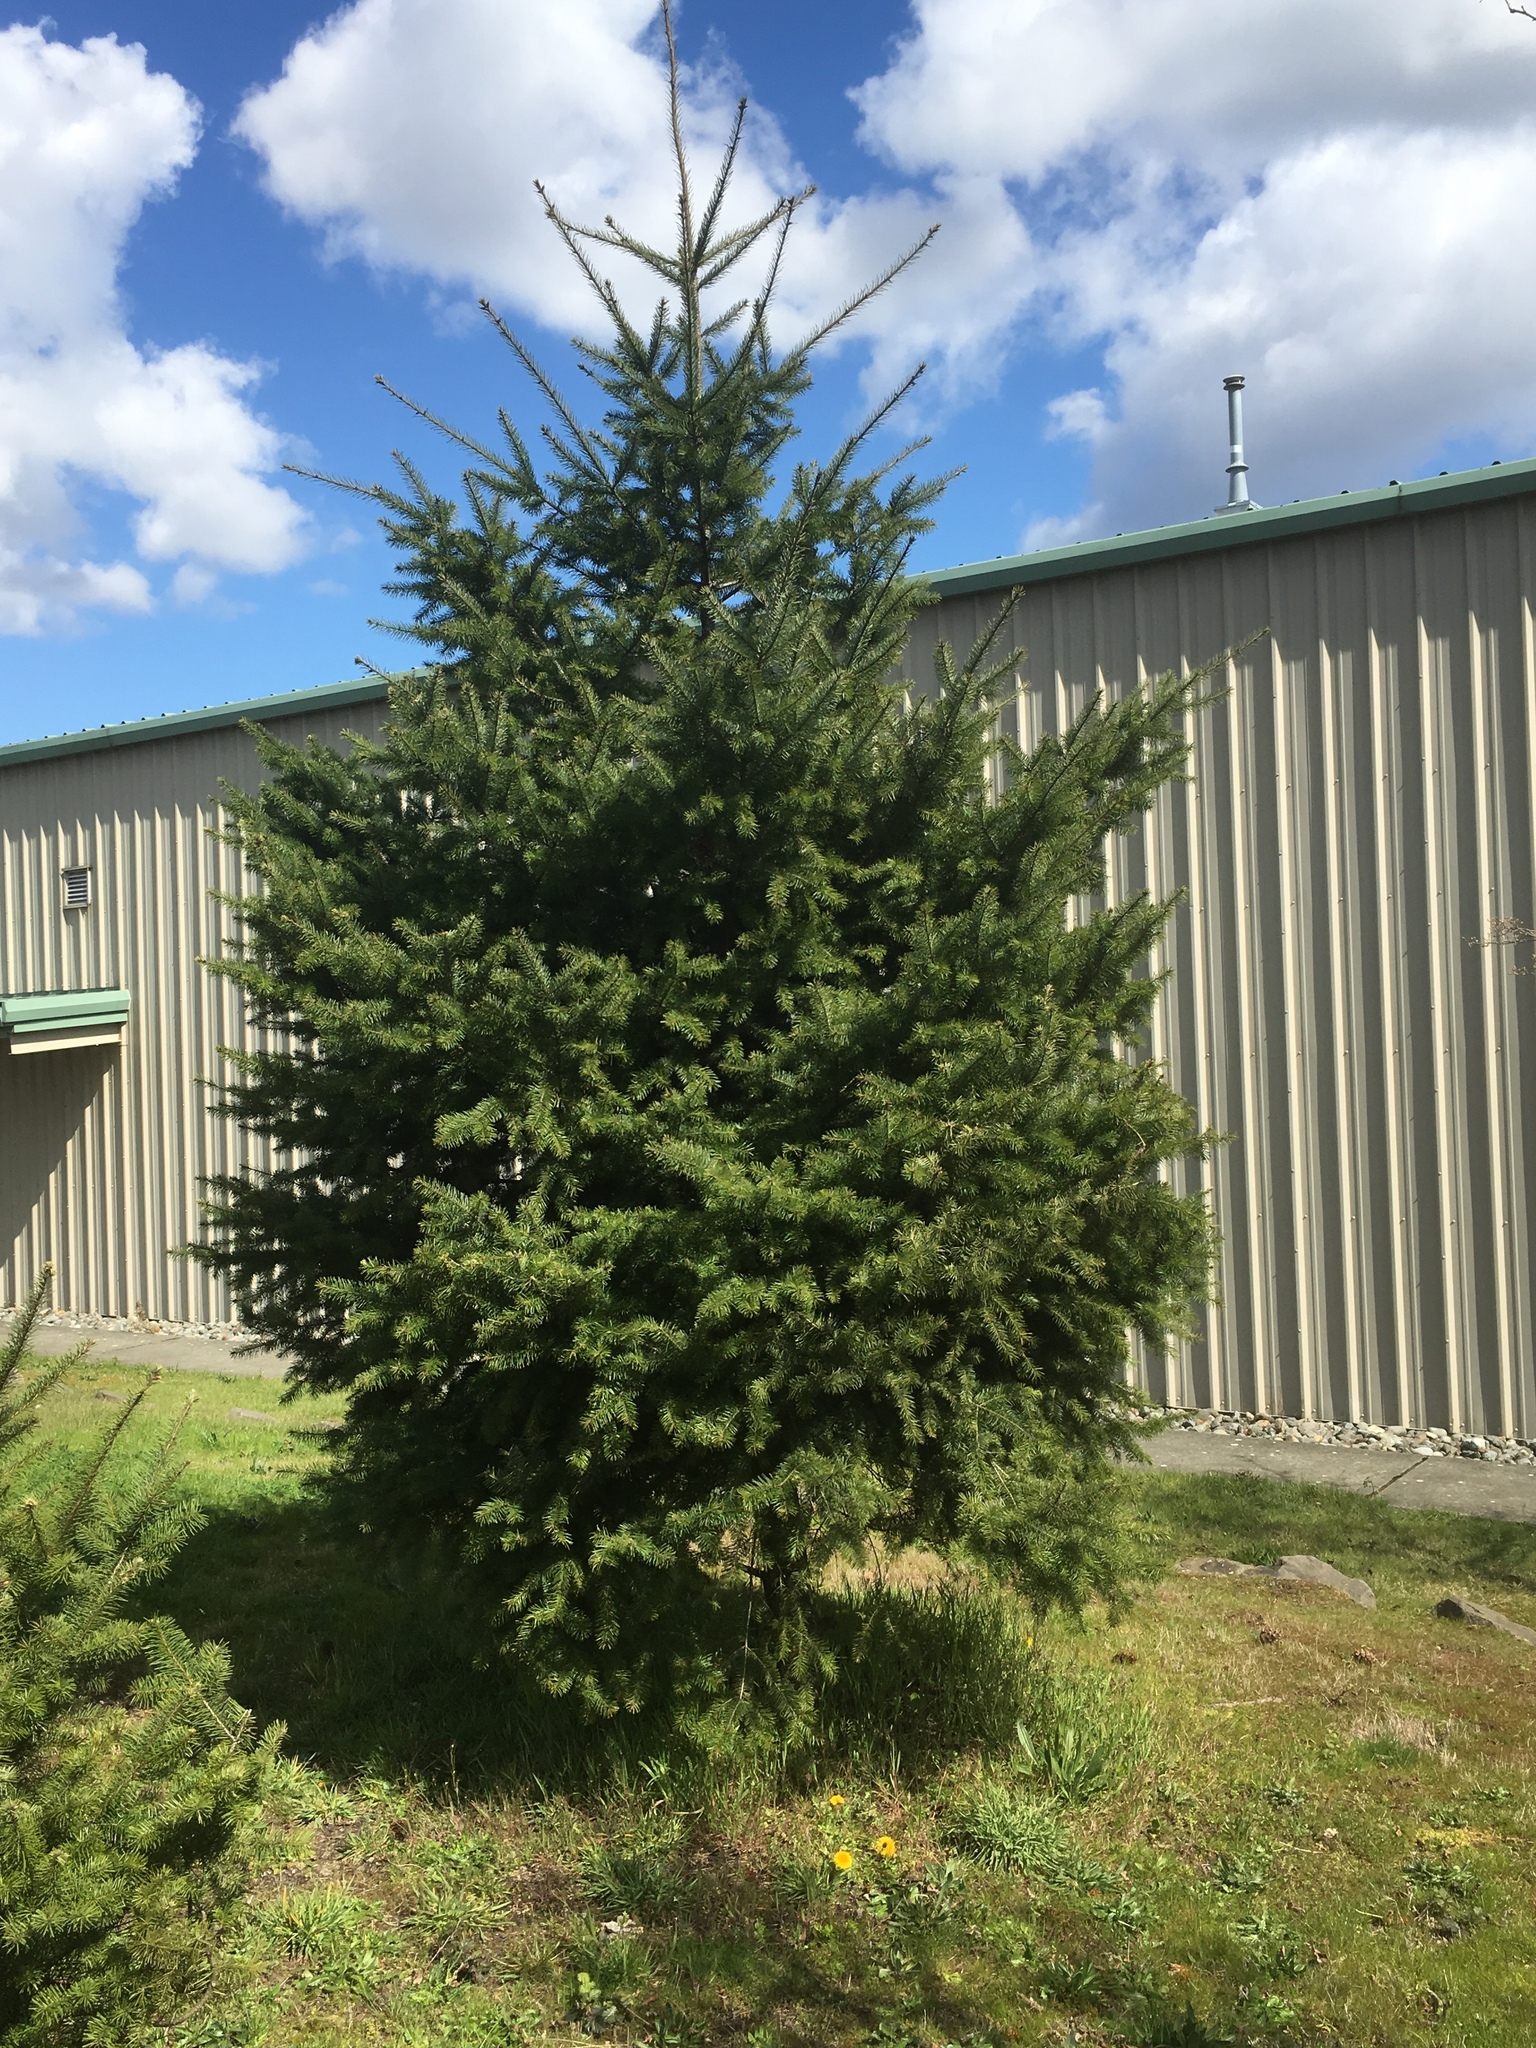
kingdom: Plantae
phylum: Tracheophyta
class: Pinopsida
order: Pinales
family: Pinaceae
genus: Pseudotsuga
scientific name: Pseudotsuga menziesii
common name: Douglas fir
